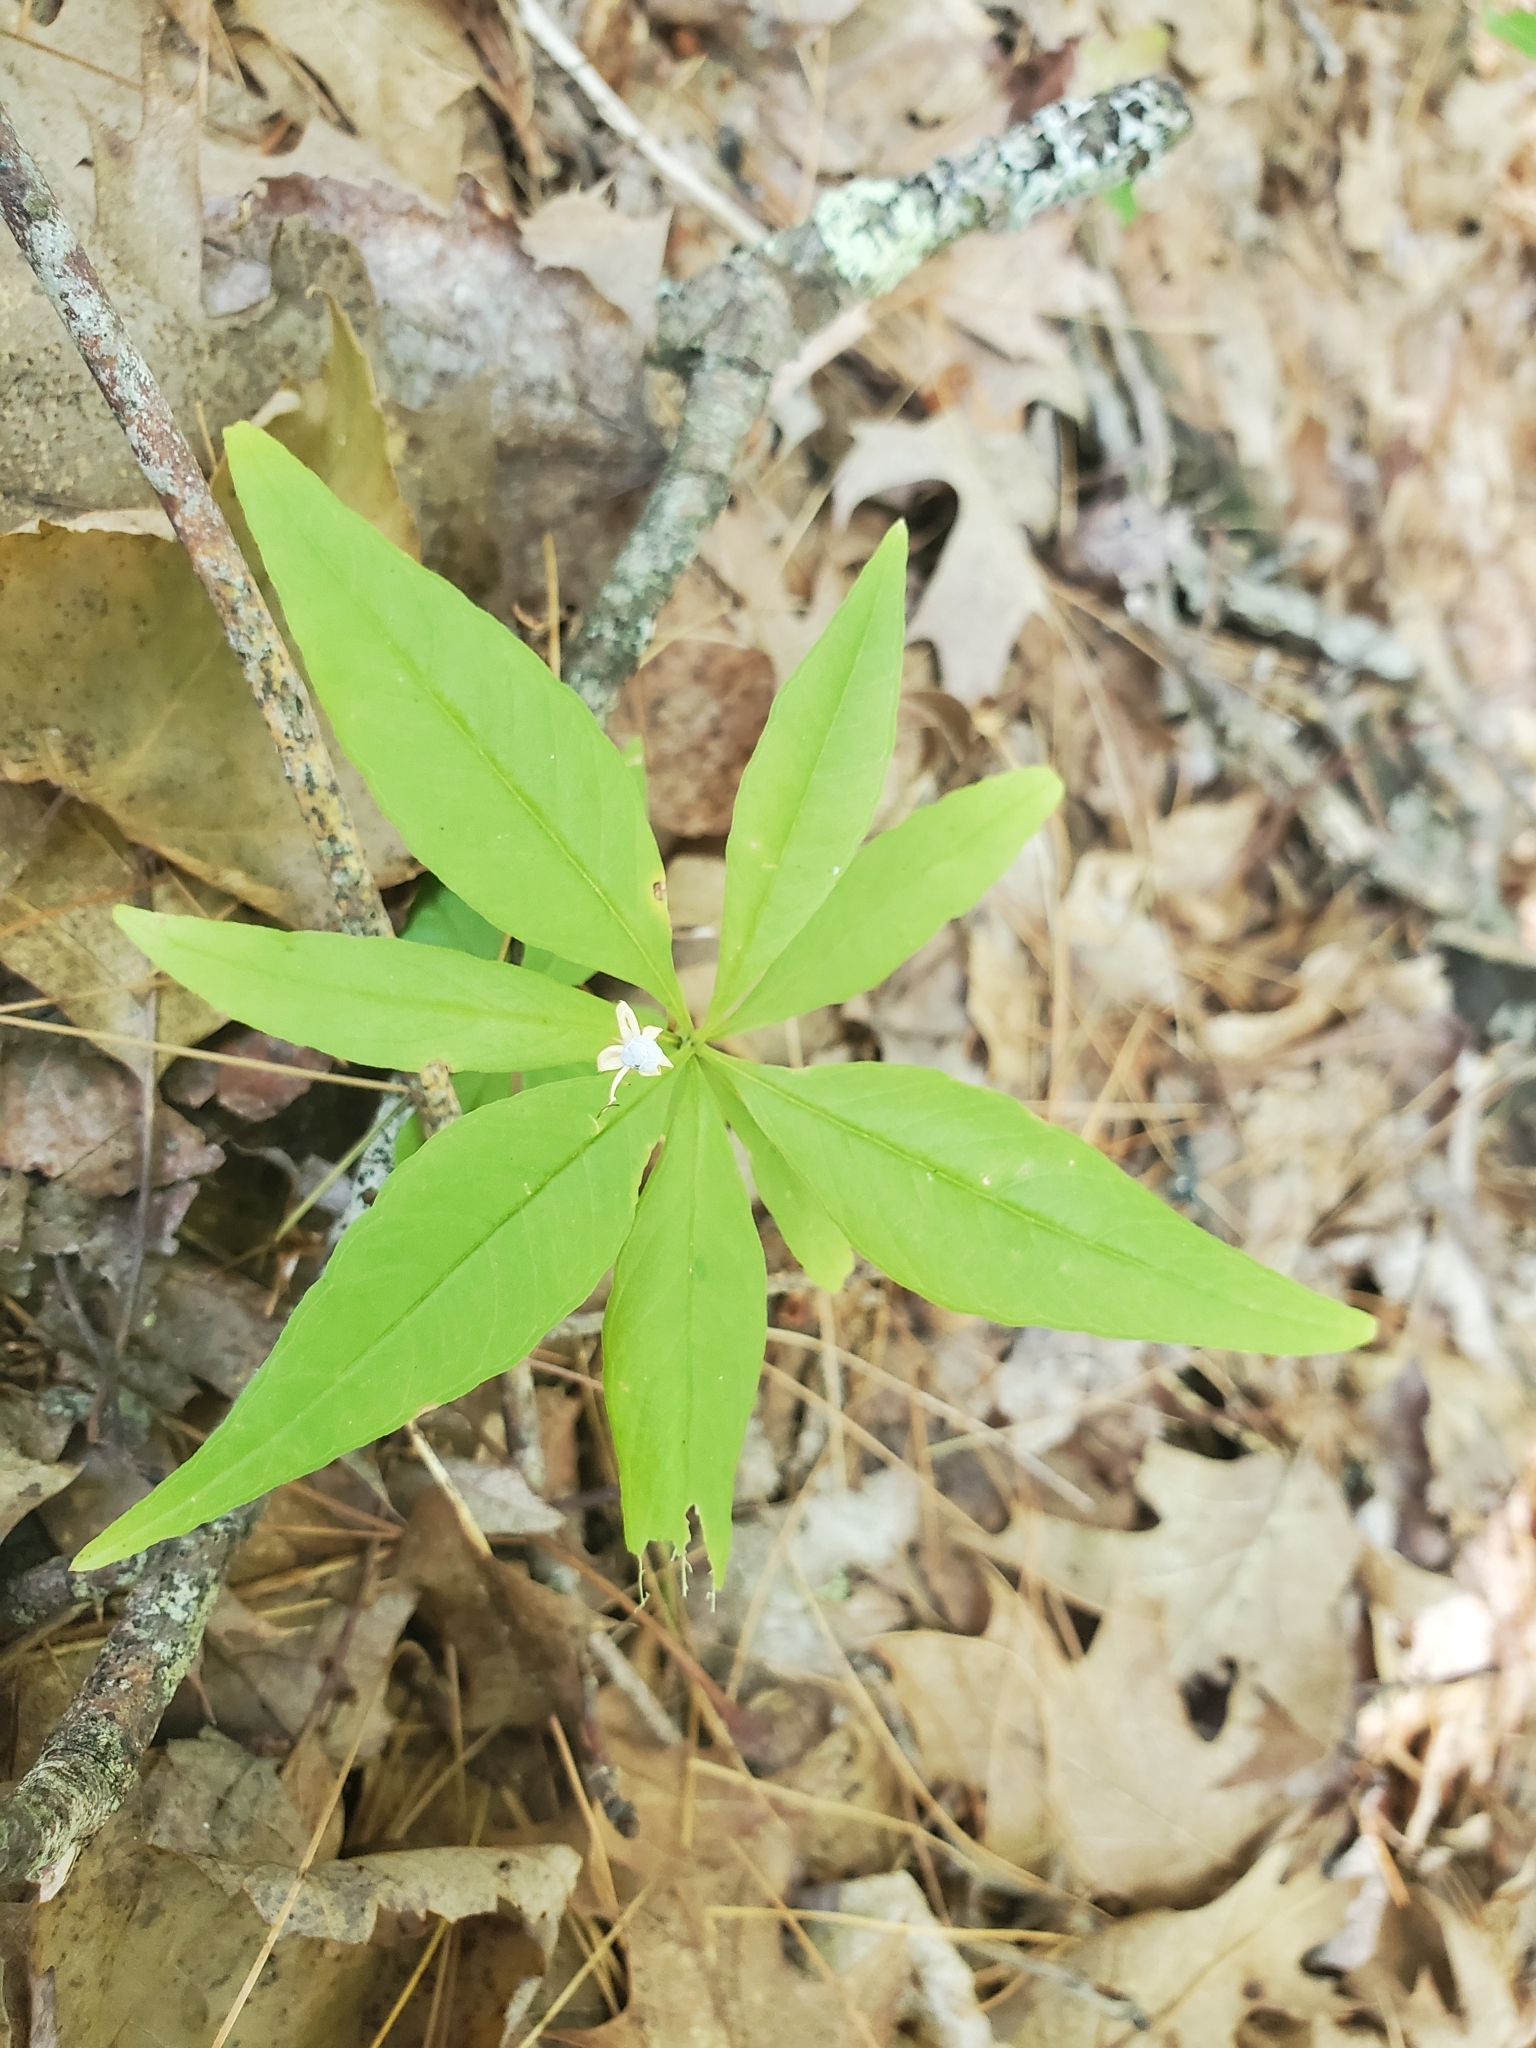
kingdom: Plantae
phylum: Tracheophyta
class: Magnoliopsida
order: Ericales
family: Primulaceae
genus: Lysimachia
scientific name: Lysimachia borealis
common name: American starflower
